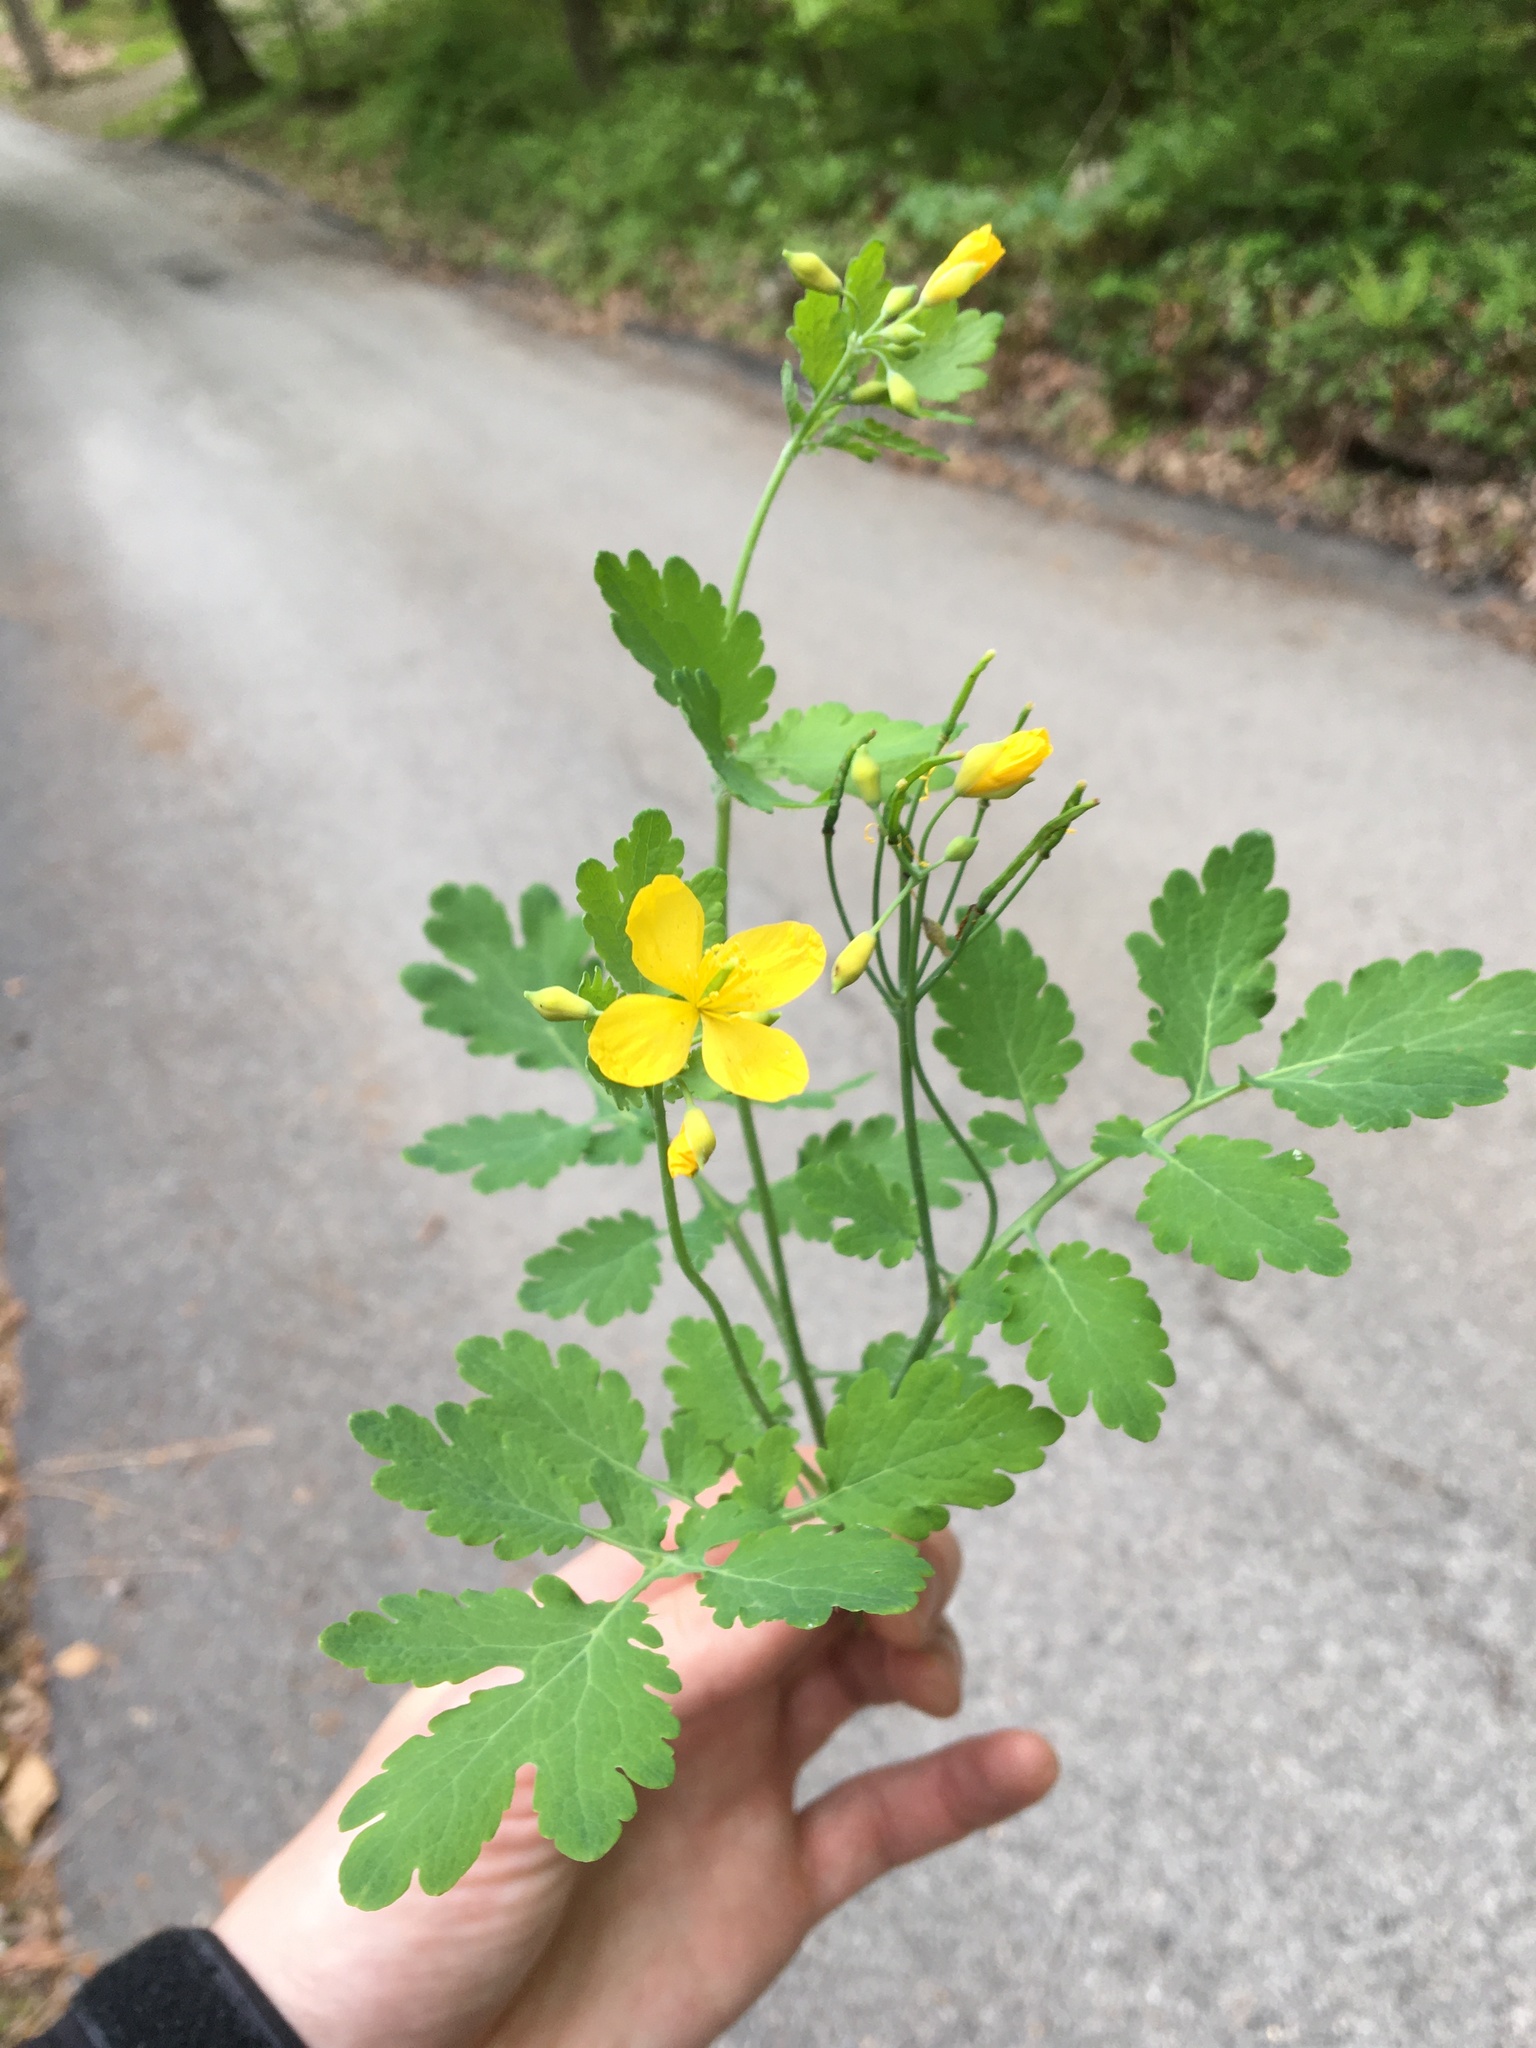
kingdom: Plantae
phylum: Tracheophyta
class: Magnoliopsida
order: Ranunculales
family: Papaveraceae
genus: Chelidonium
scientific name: Chelidonium majus
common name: Greater celandine
